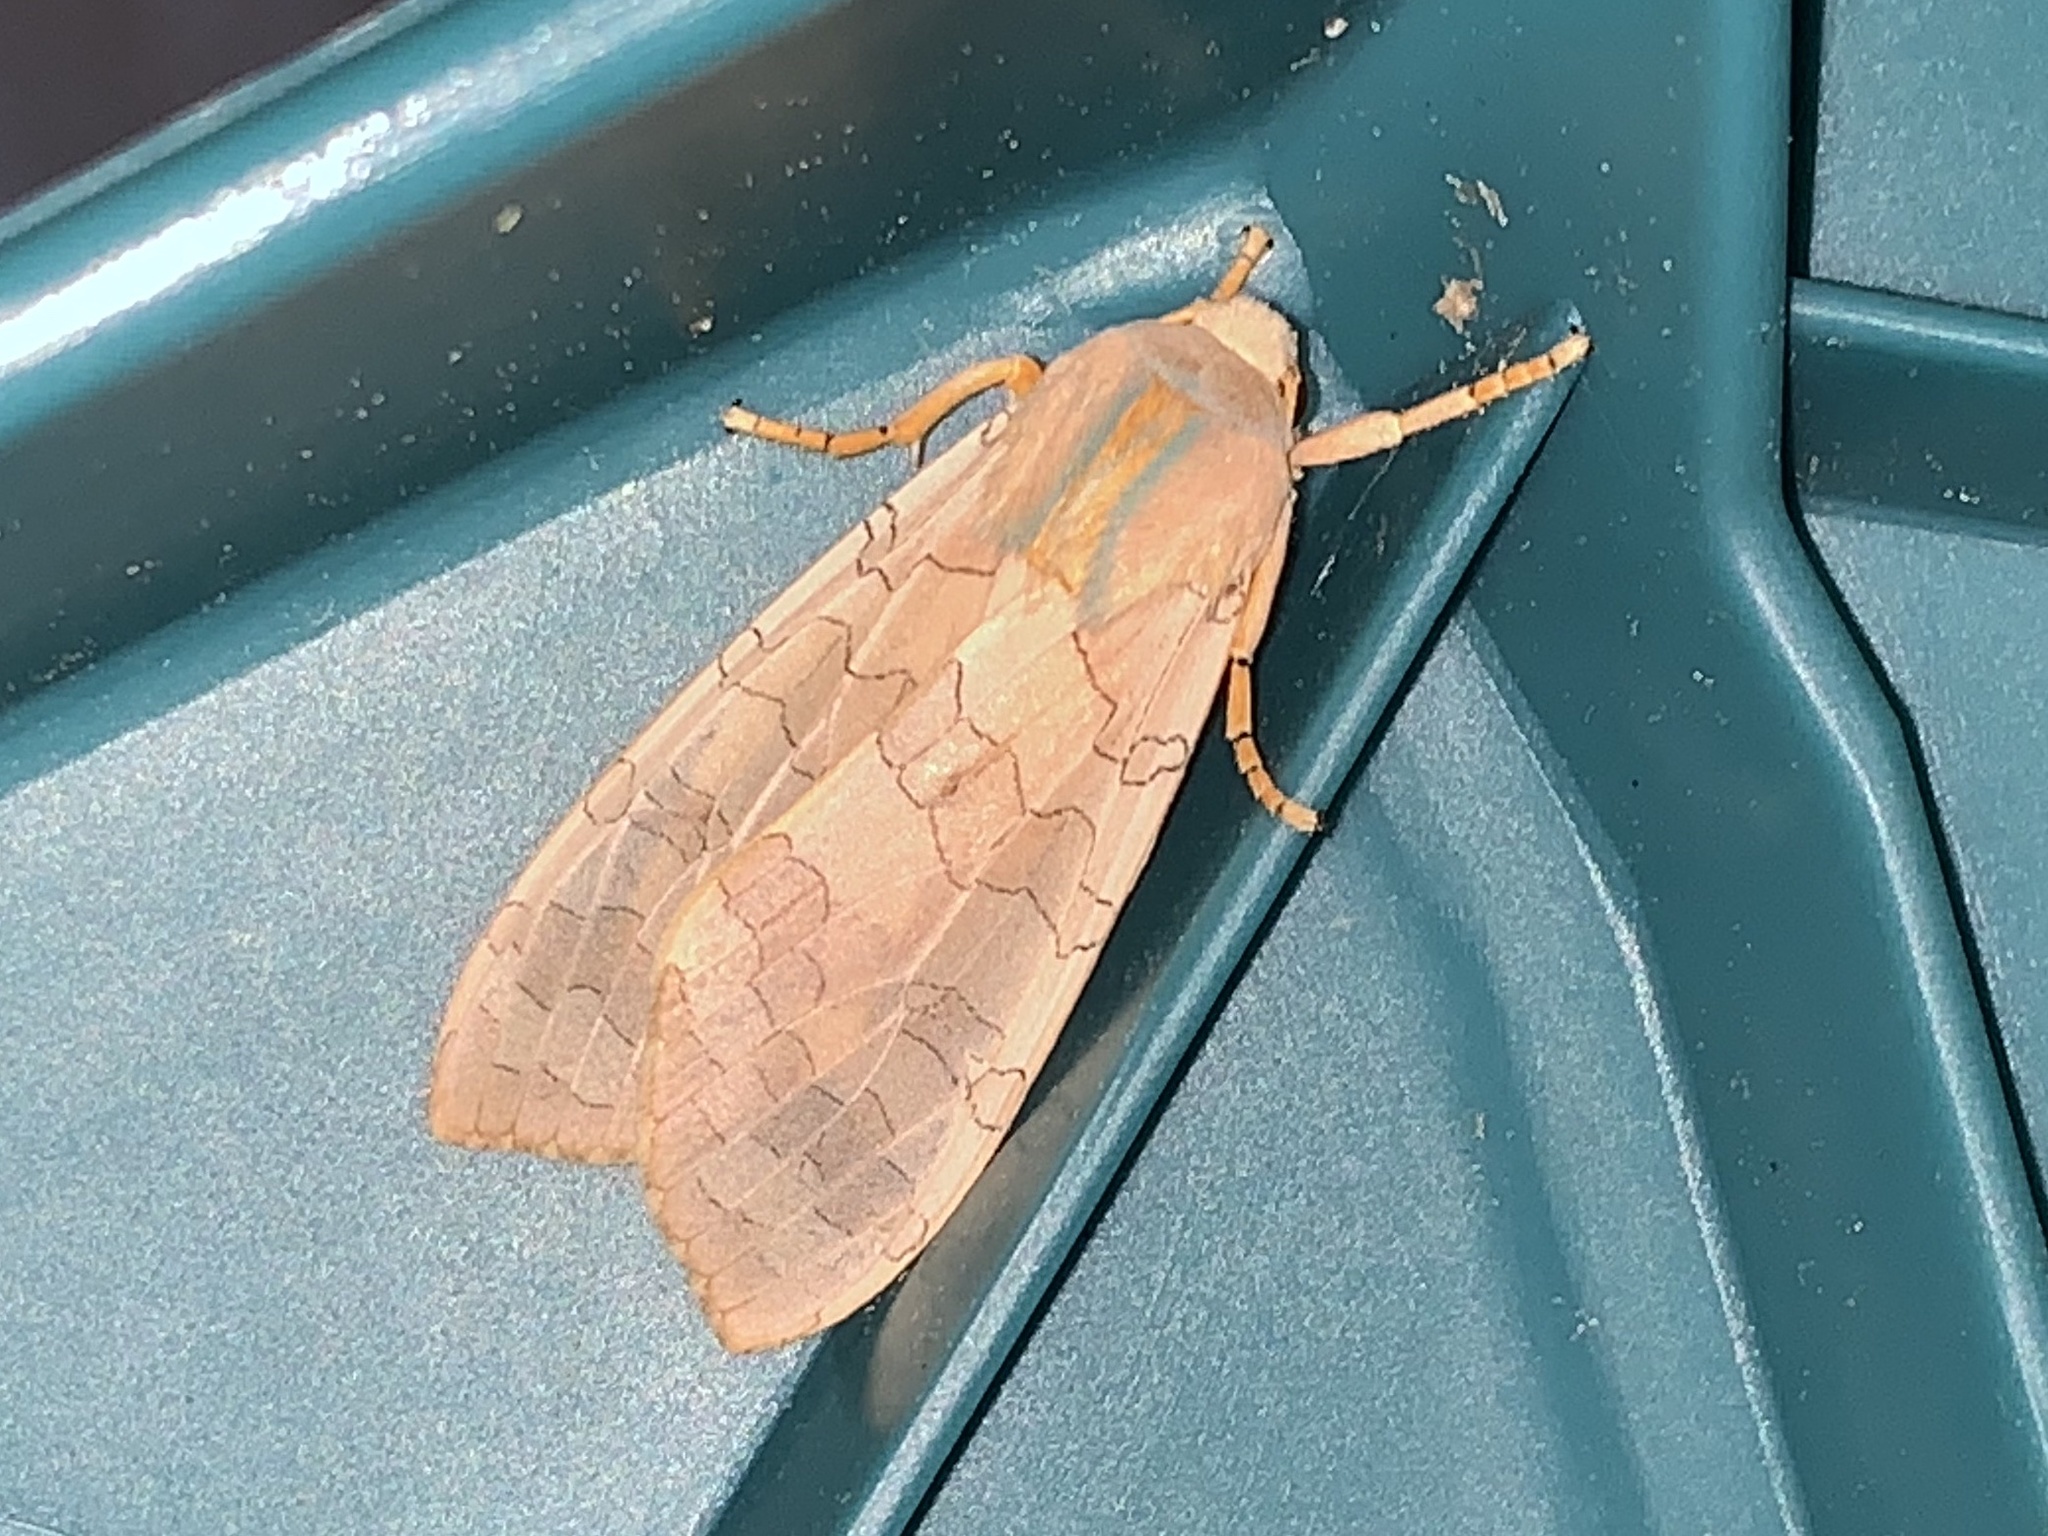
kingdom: Animalia
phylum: Arthropoda
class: Insecta
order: Lepidoptera
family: Erebidae
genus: Halysidota
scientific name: Halysidota
